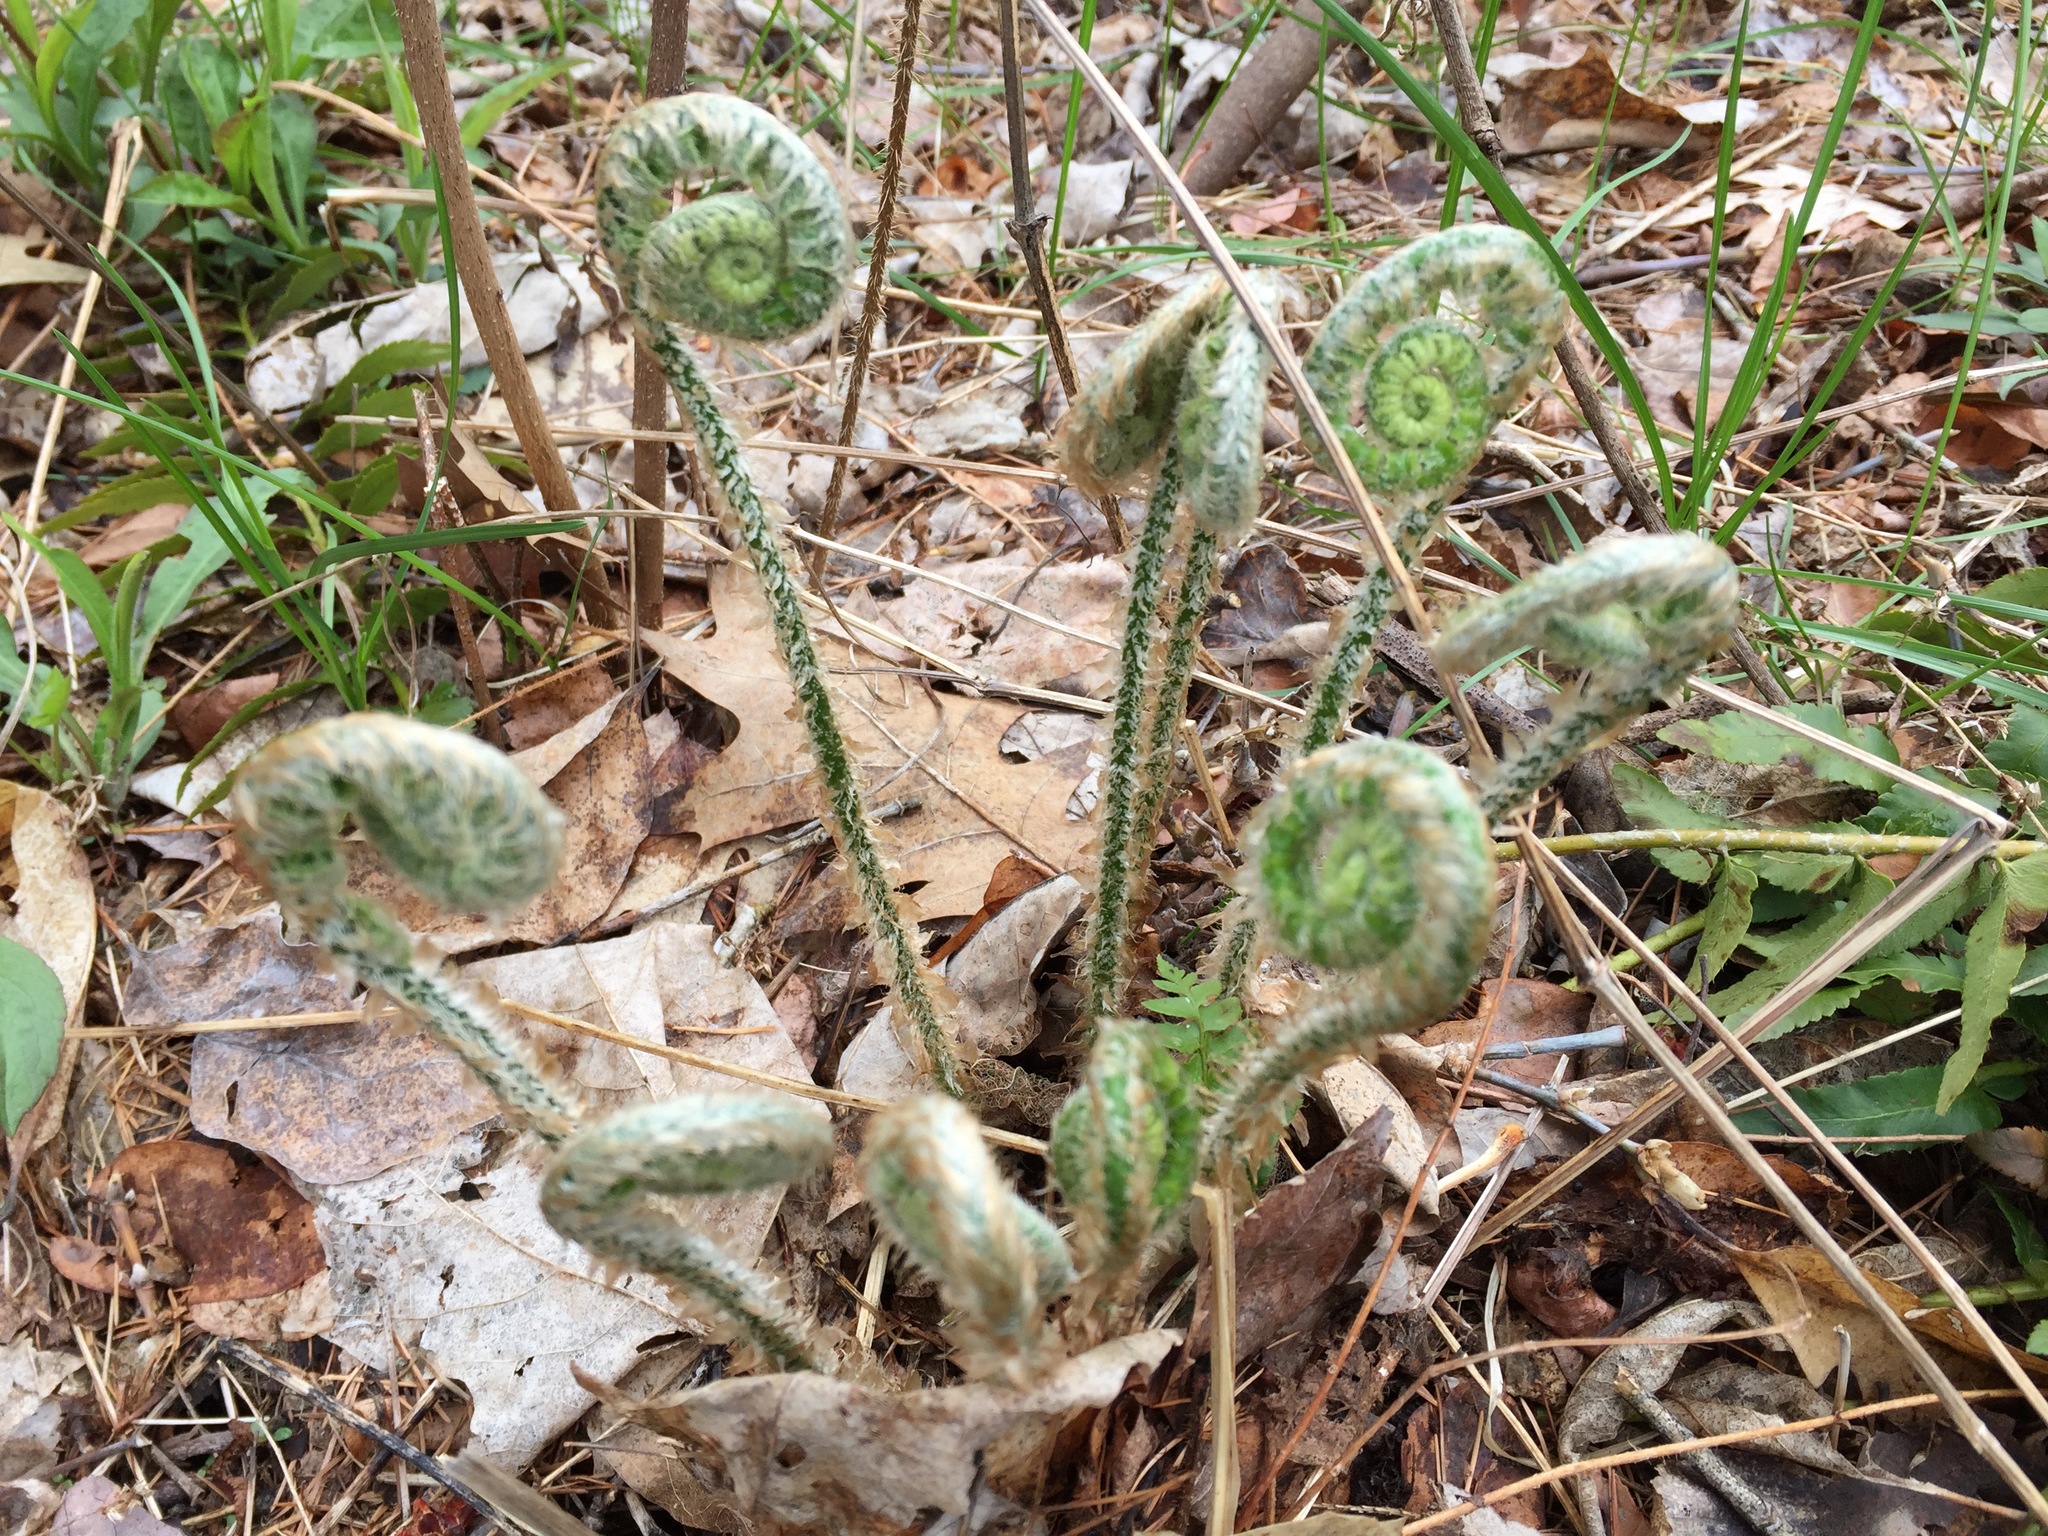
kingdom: Plantae
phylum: Tracheophyta
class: Polypodiopsida
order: Polypodiales
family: Dryopteridaceae
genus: Polystichum
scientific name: Polystichum acrostichoides
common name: Christmas fern
